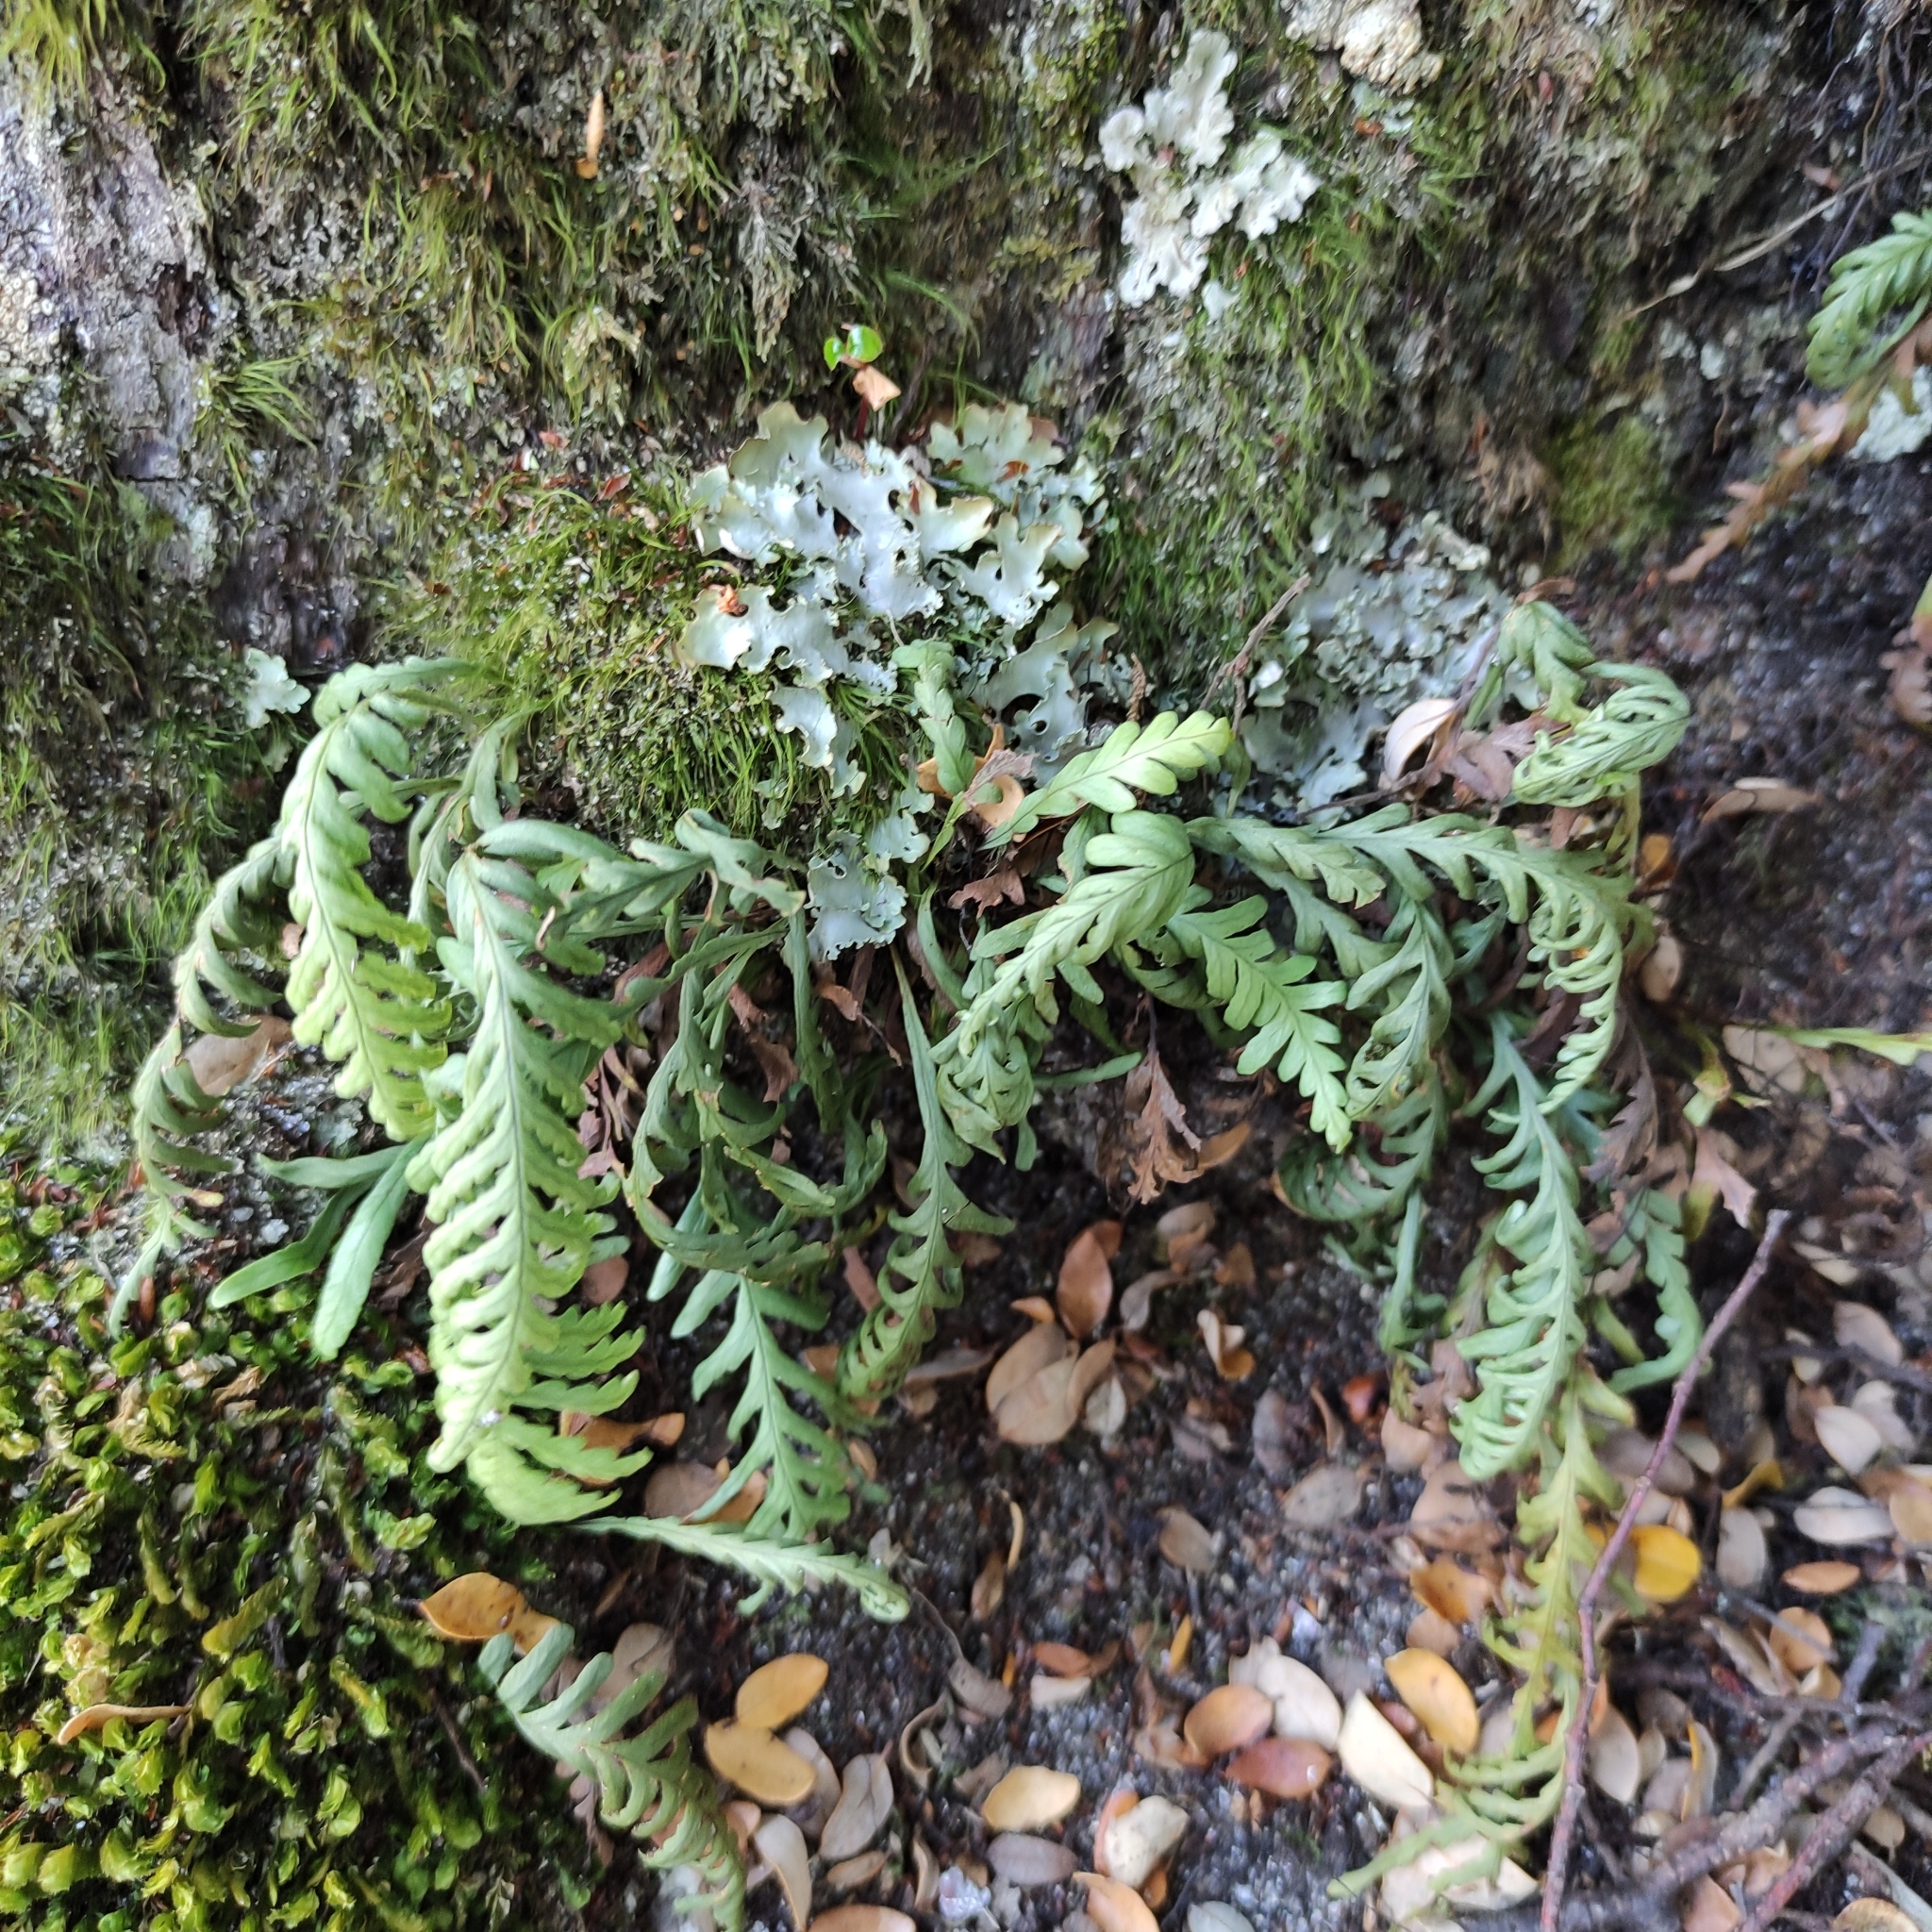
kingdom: Plantae
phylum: Tracheophyta
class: Polypodiopsida
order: Polypodiales
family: Polypodiaceae
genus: Notogrammitis
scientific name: Notogrammitis heterophylla
